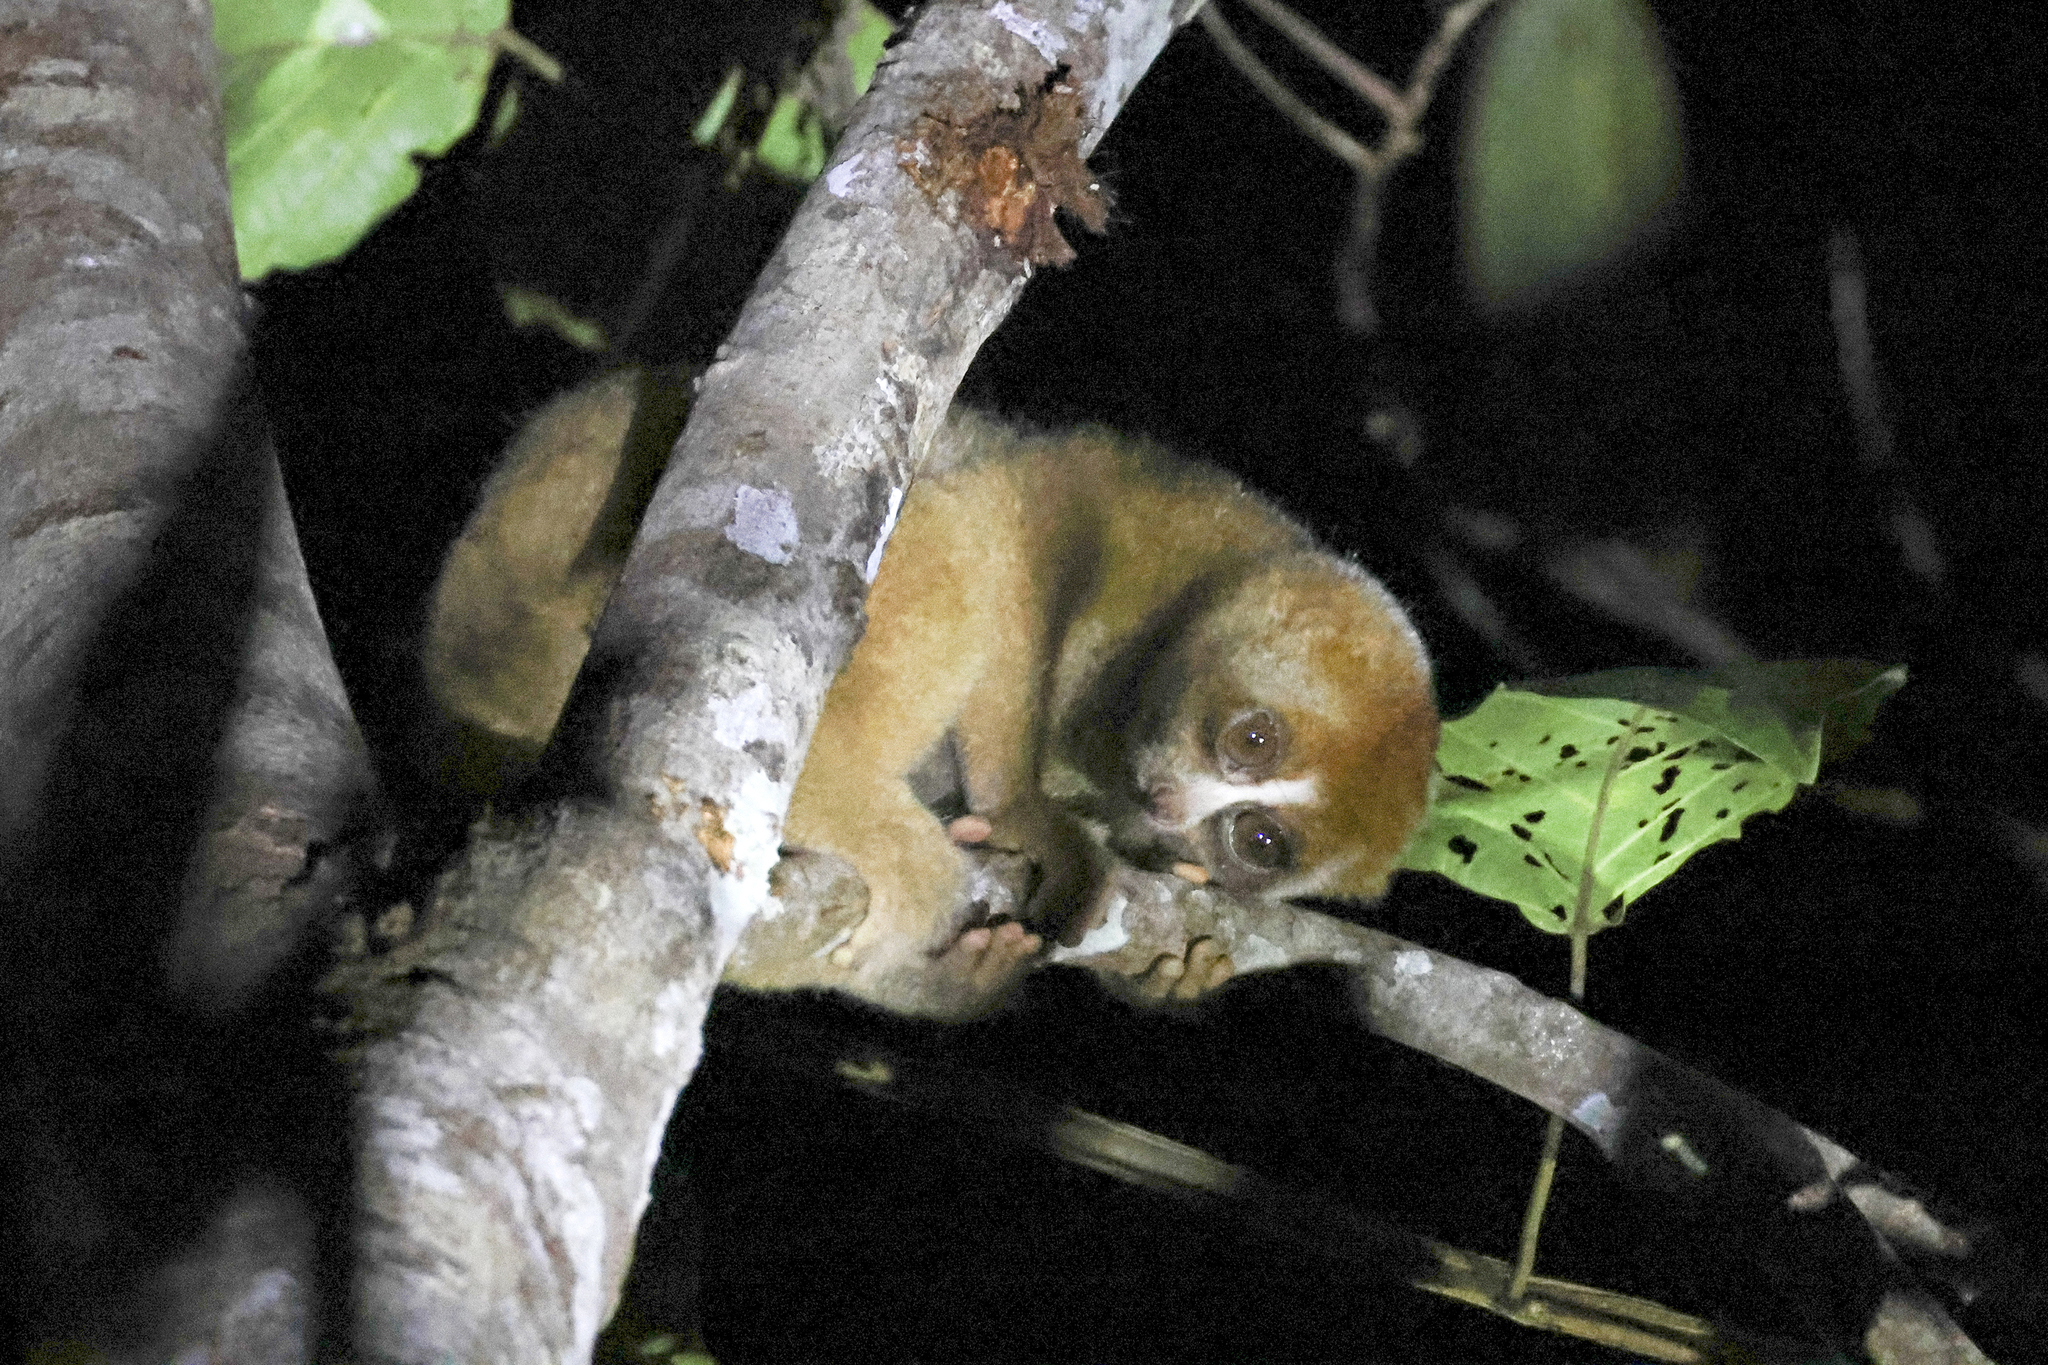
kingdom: Animalia
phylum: Chordata
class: Mammalia
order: Primates
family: Lorisidae
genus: Nycticebus
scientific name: Nycticebus menagensis
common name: Philippine slow loris
